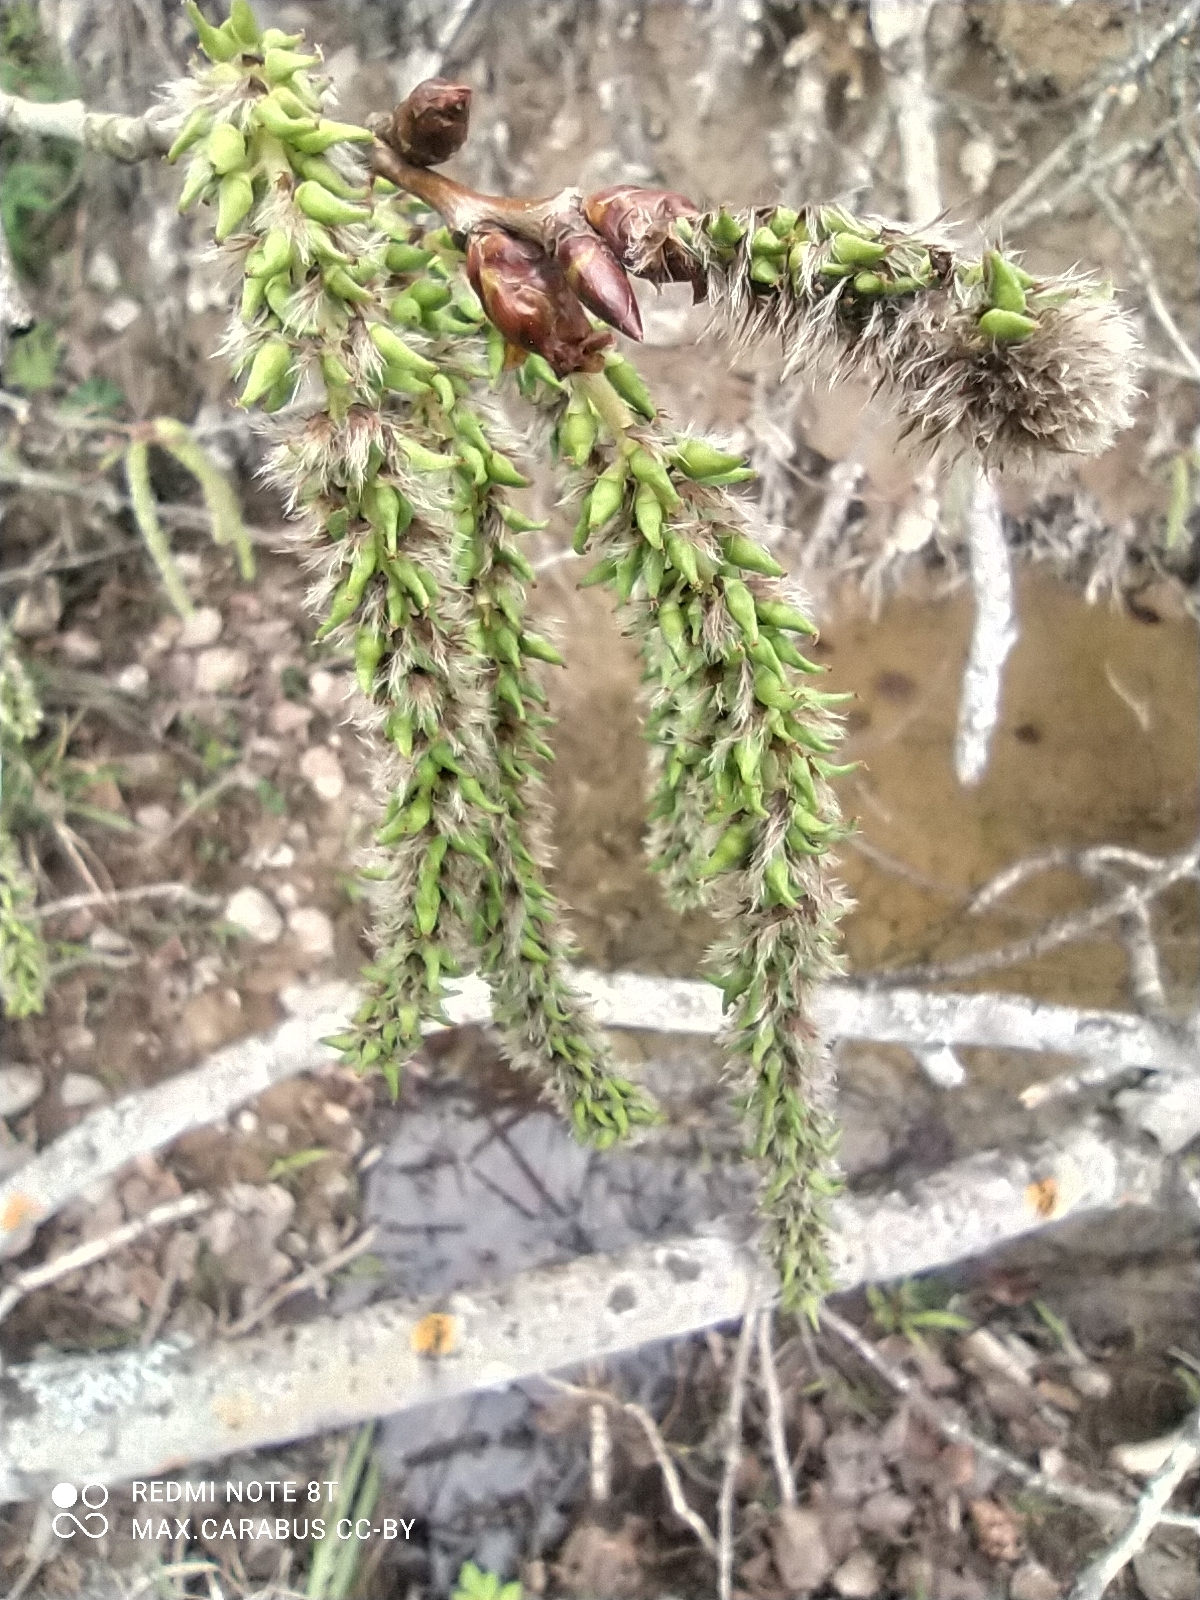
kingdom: Plantae
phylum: Tracheophyta
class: Magnoliopsida
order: Malpighiales
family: Salicaceae
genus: Populus
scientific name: Populus tremula
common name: European aspen
